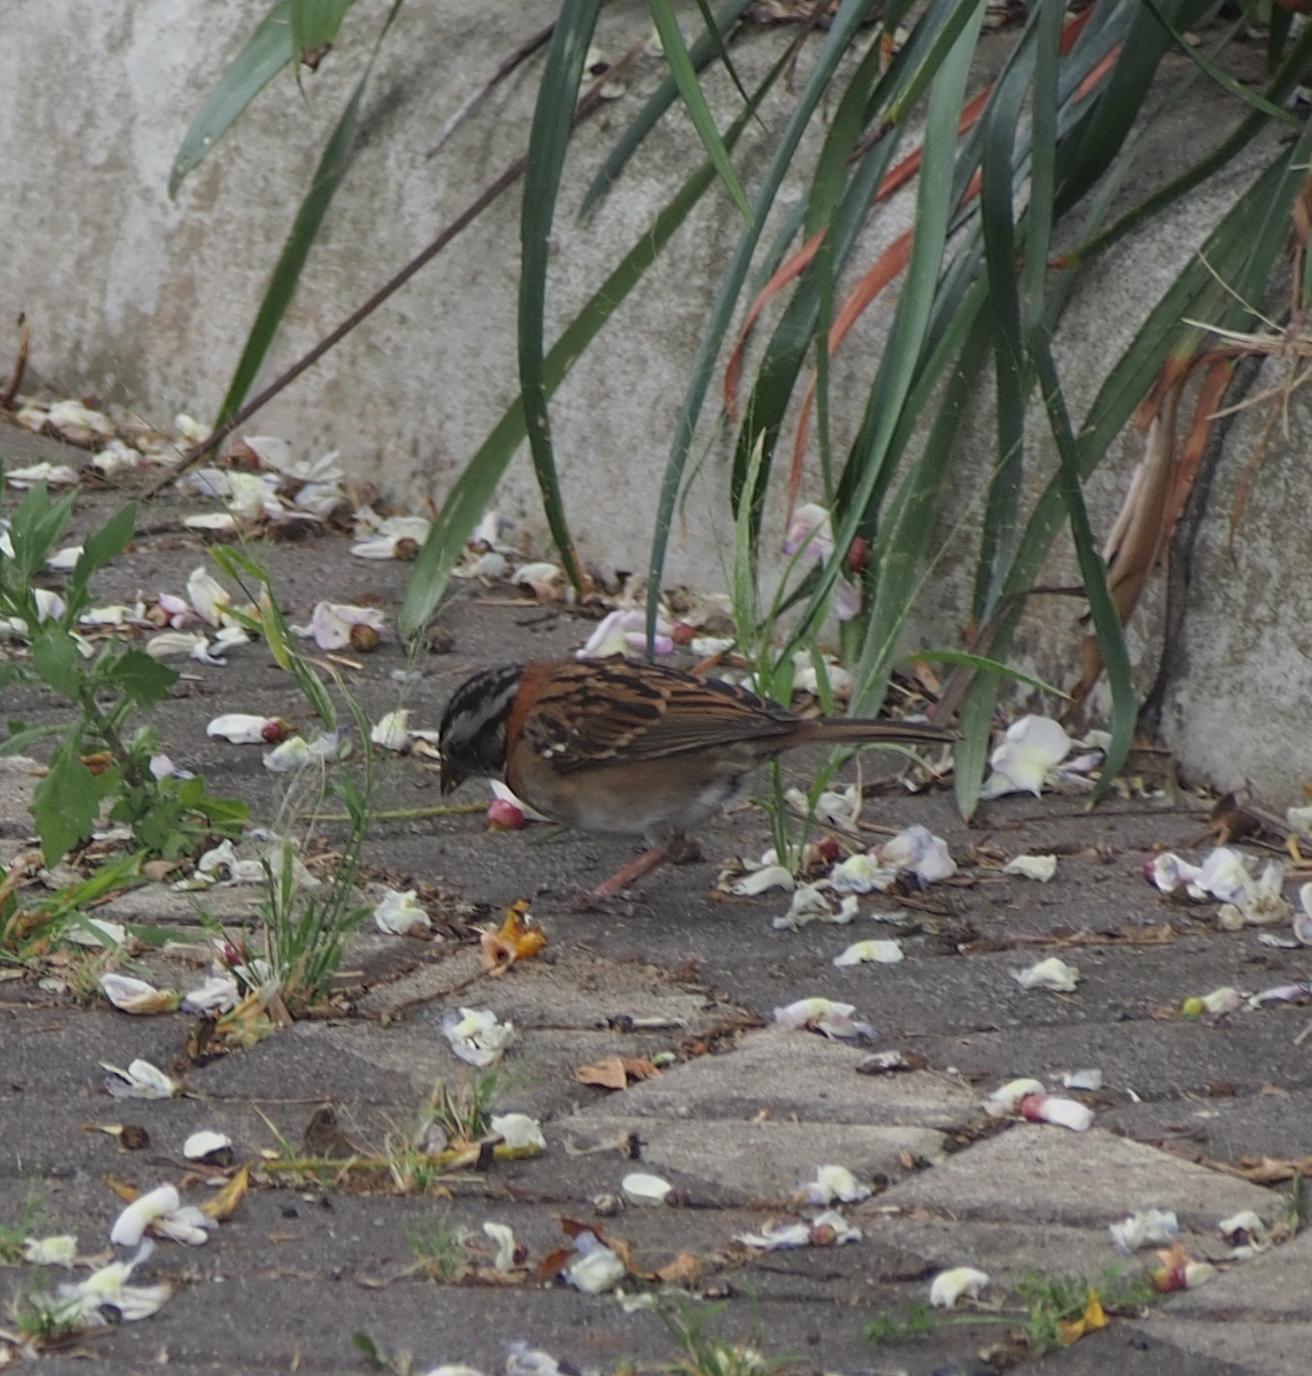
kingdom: Animalia
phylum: Chordata
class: Aves
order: Passeriformes
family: Passerellidae
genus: Zonotrichia
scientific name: Zonotrichia capensis
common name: Rufous-collared sparrow
